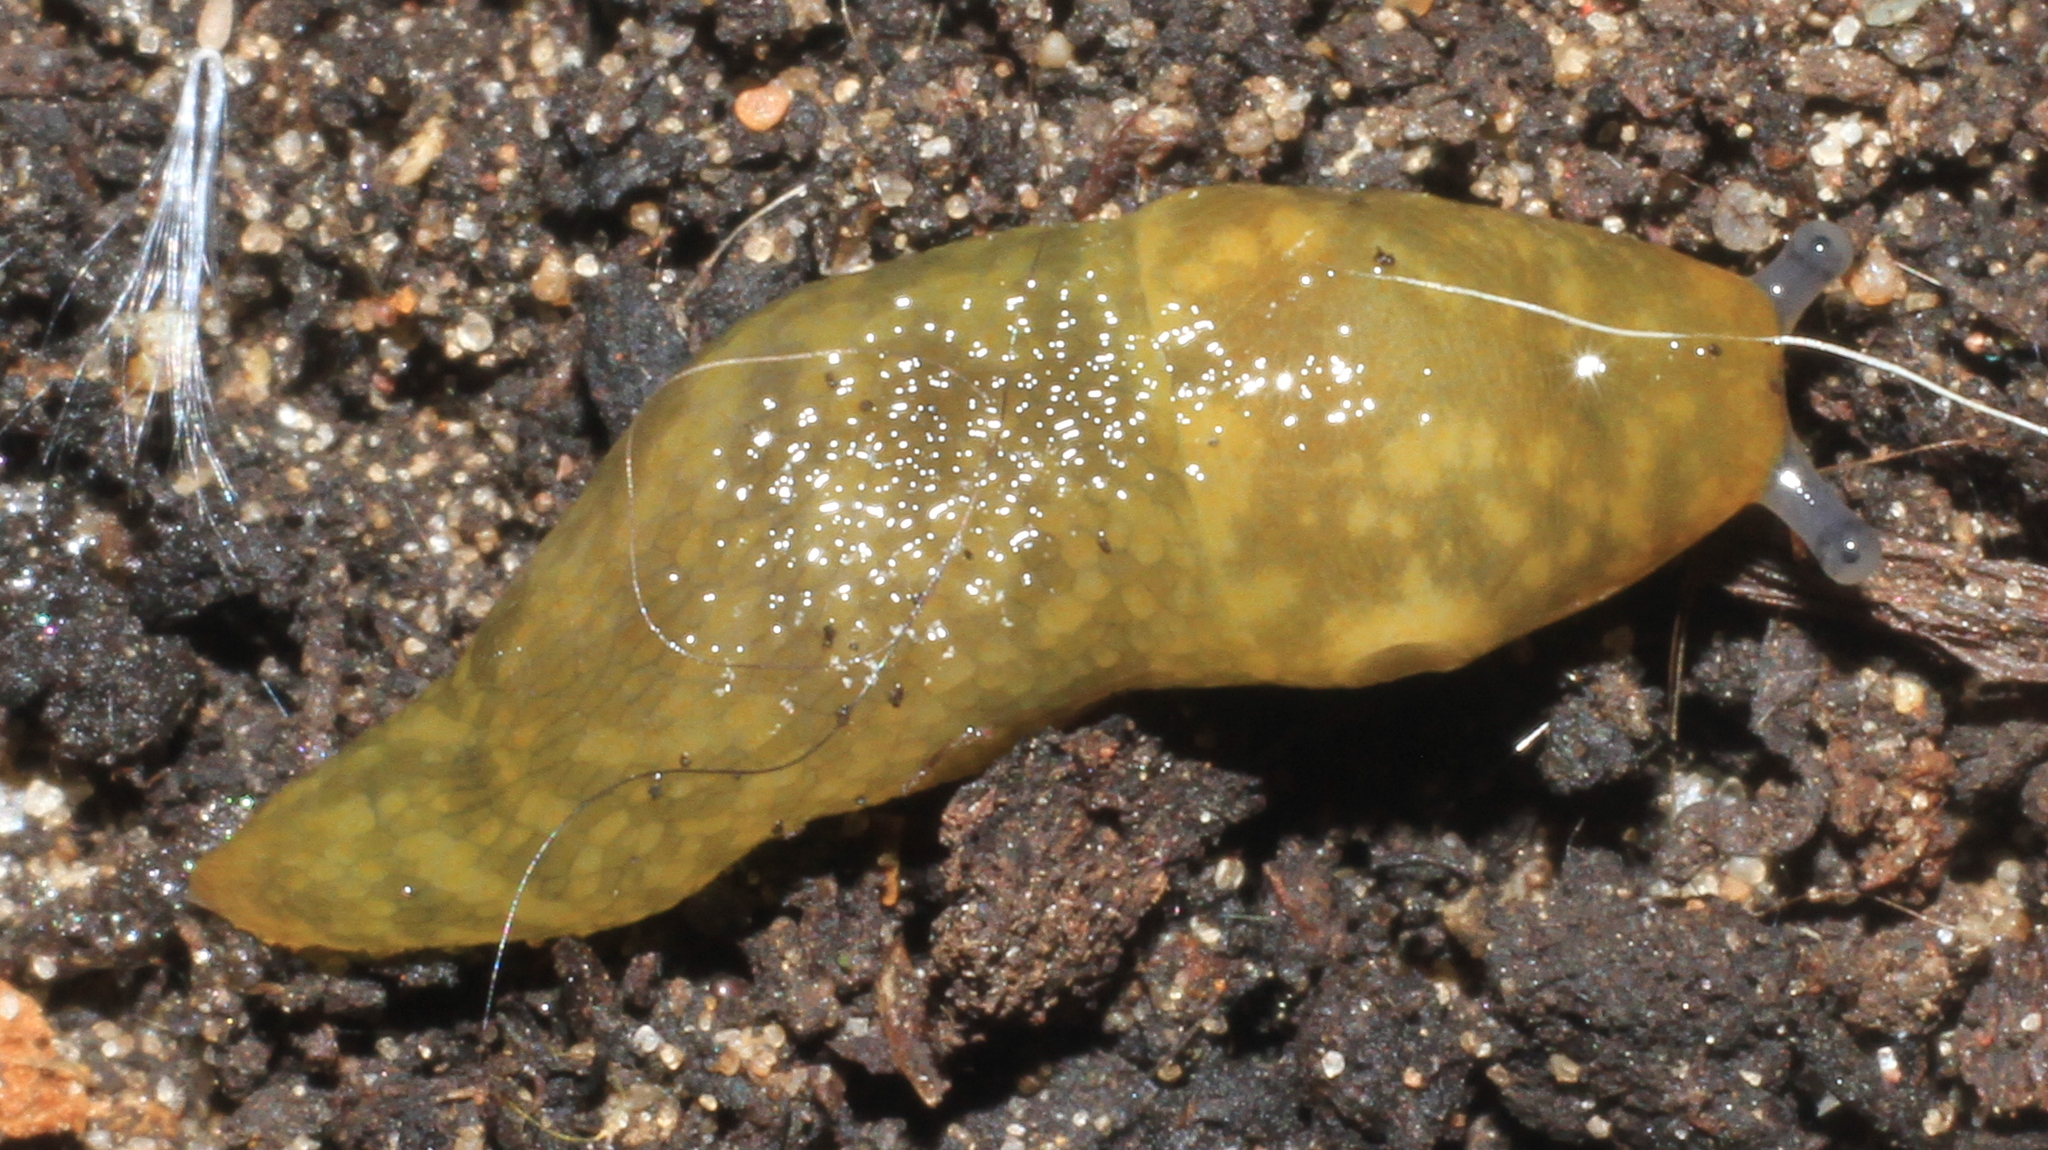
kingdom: Animalia
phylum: Mollusca
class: Gastropoda
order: Stylommatophora
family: Limacidae
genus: Limacus
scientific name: Limacus maculatus
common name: Irish yellow slug
